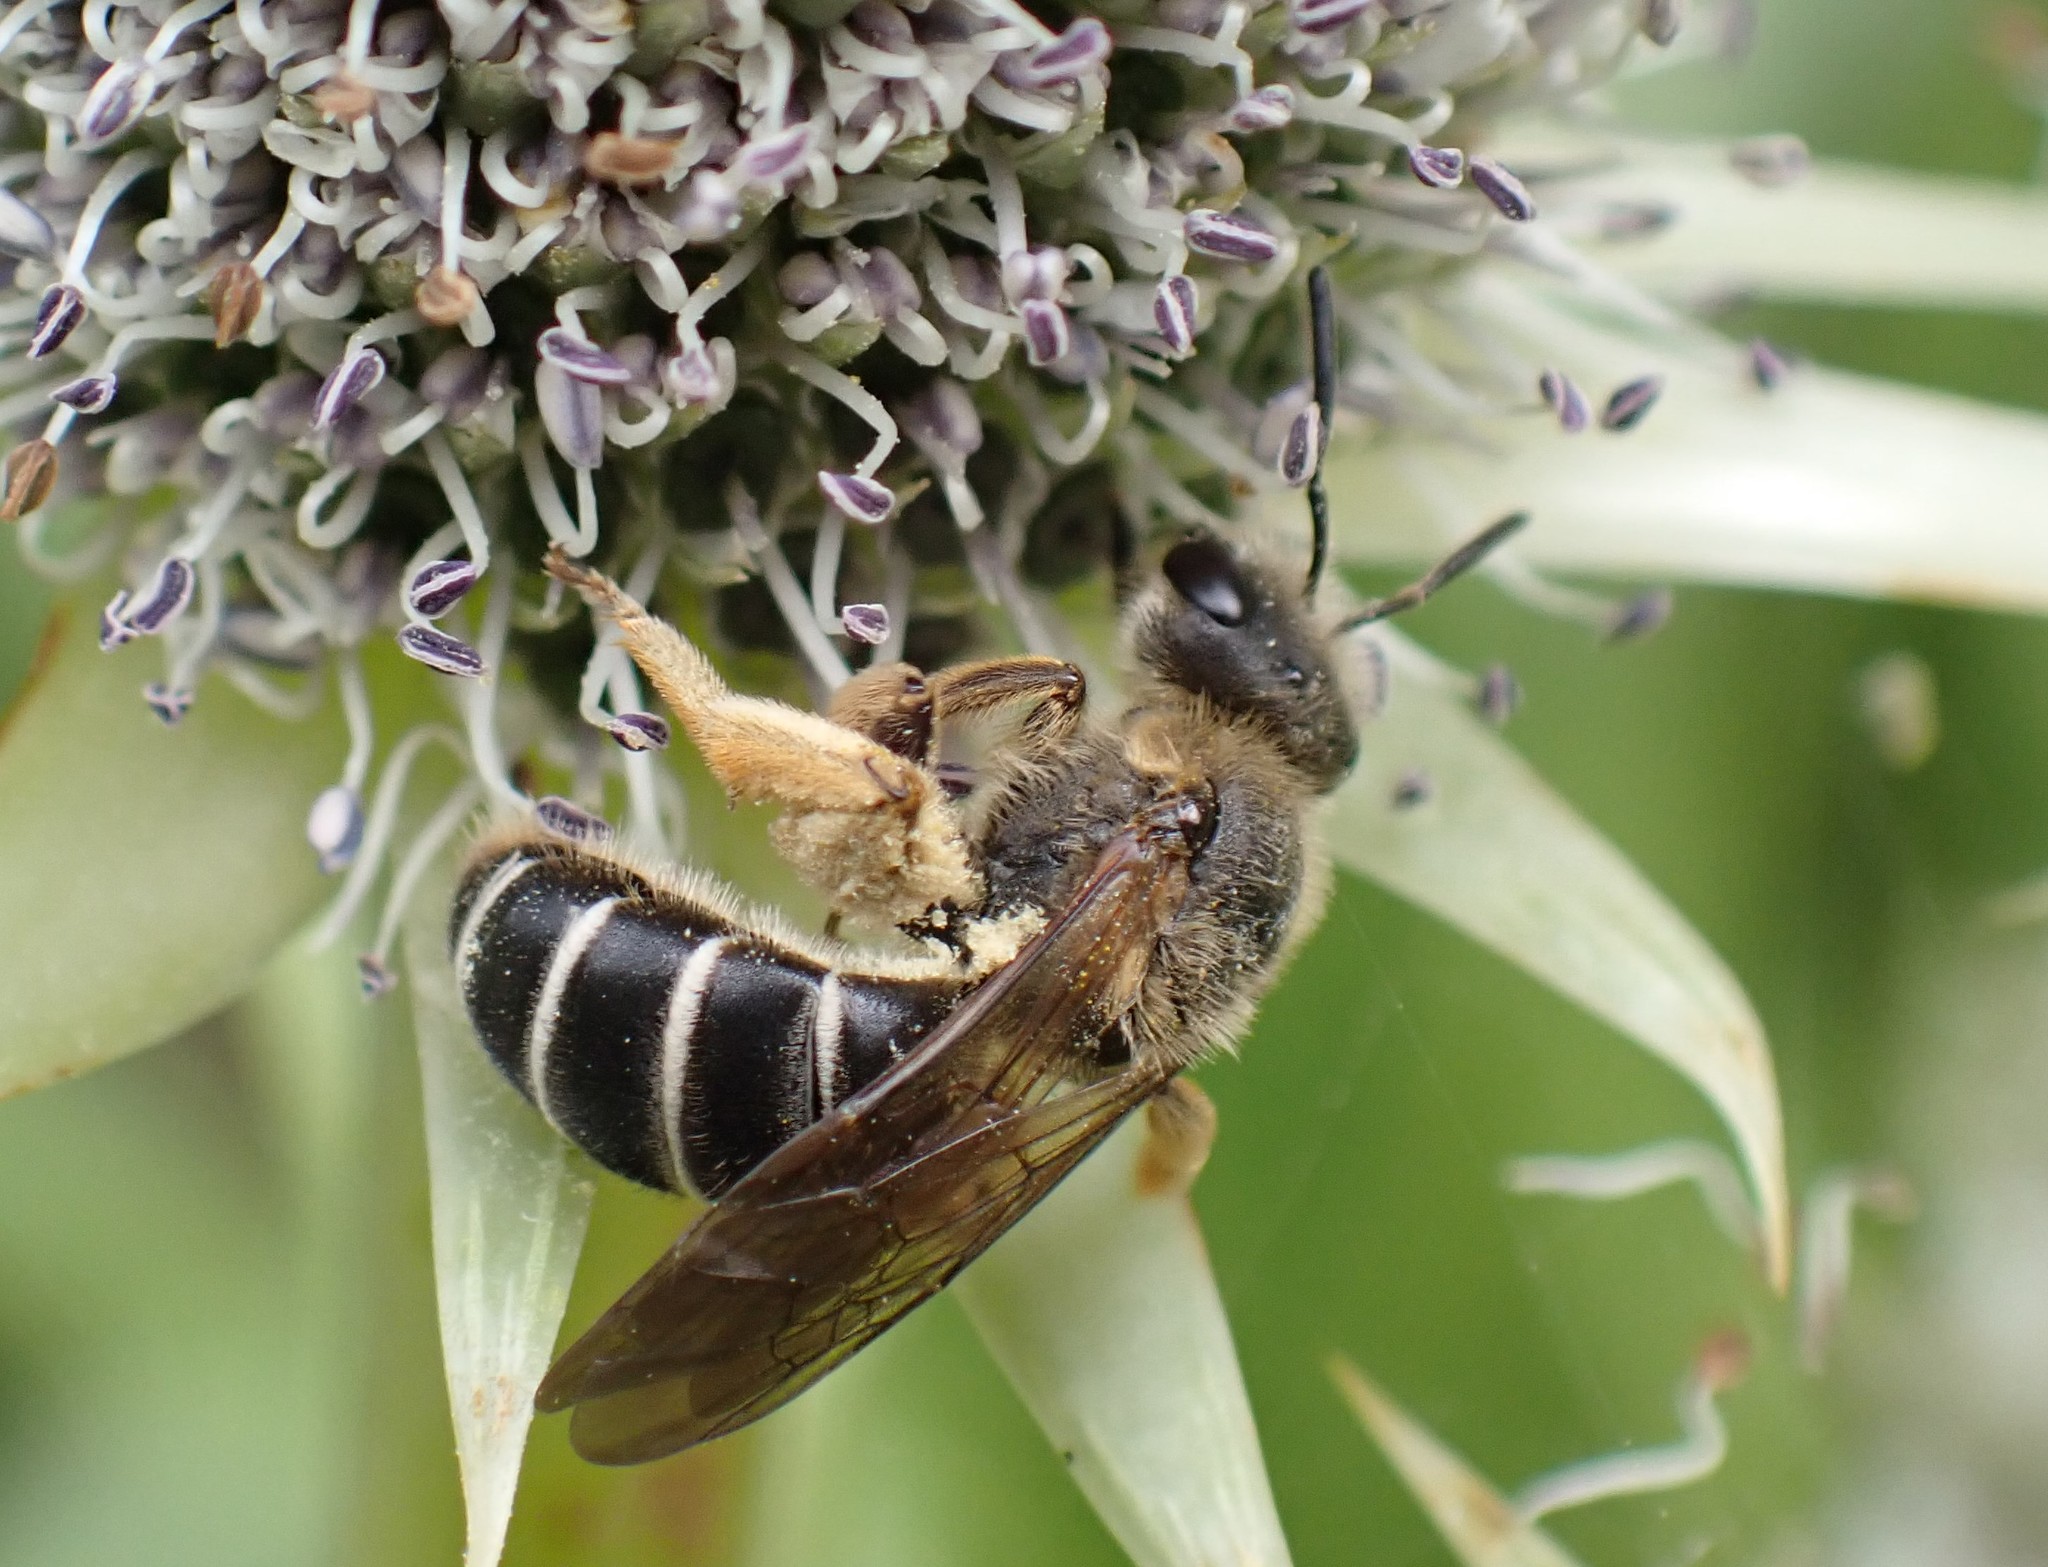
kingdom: Animalia
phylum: Arthropoda
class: Insecta
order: Hymenoptera
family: Halictidae
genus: Halictus
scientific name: Halictus rubicundus
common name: Orange-legged furrow bee
